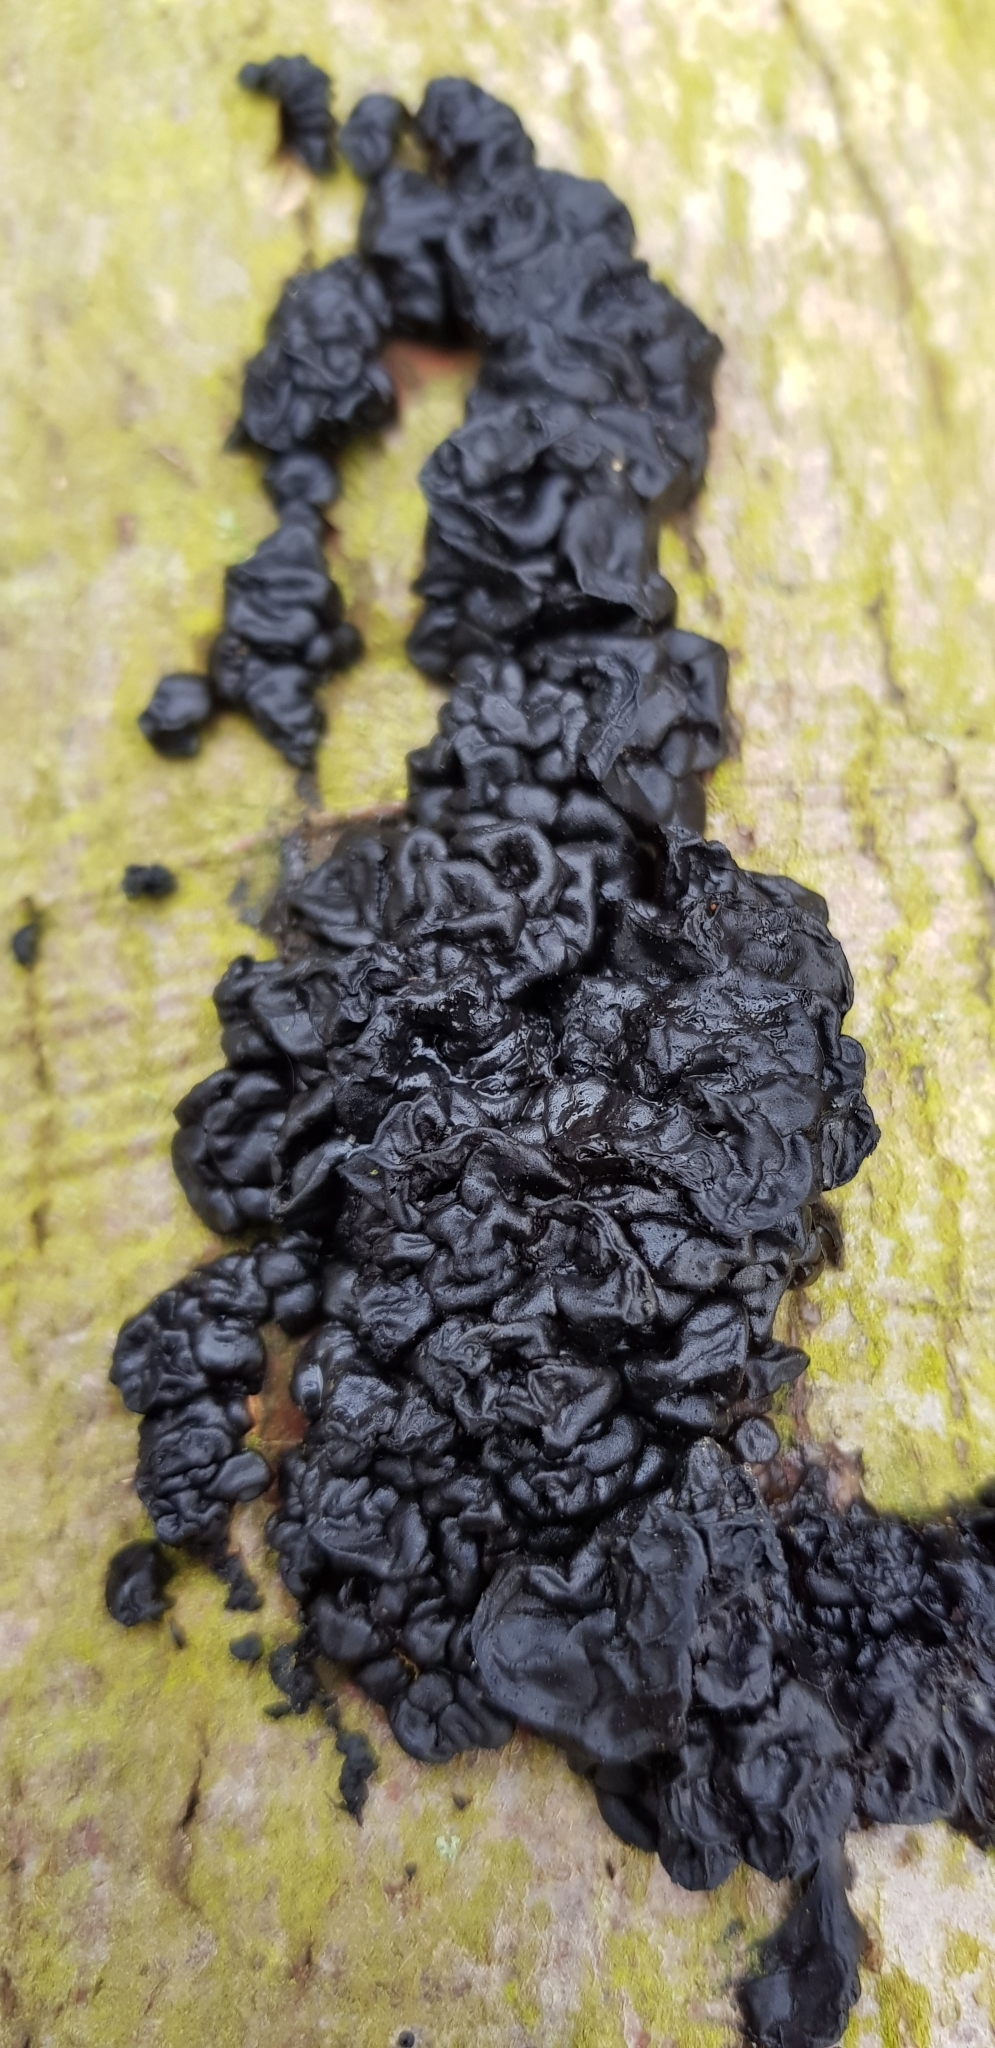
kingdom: Fungi
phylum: Basidiomycota
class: Agaricomycetes
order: Auriculariales
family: Auriculariaceae
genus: Exidia
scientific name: Exidia nigricans
